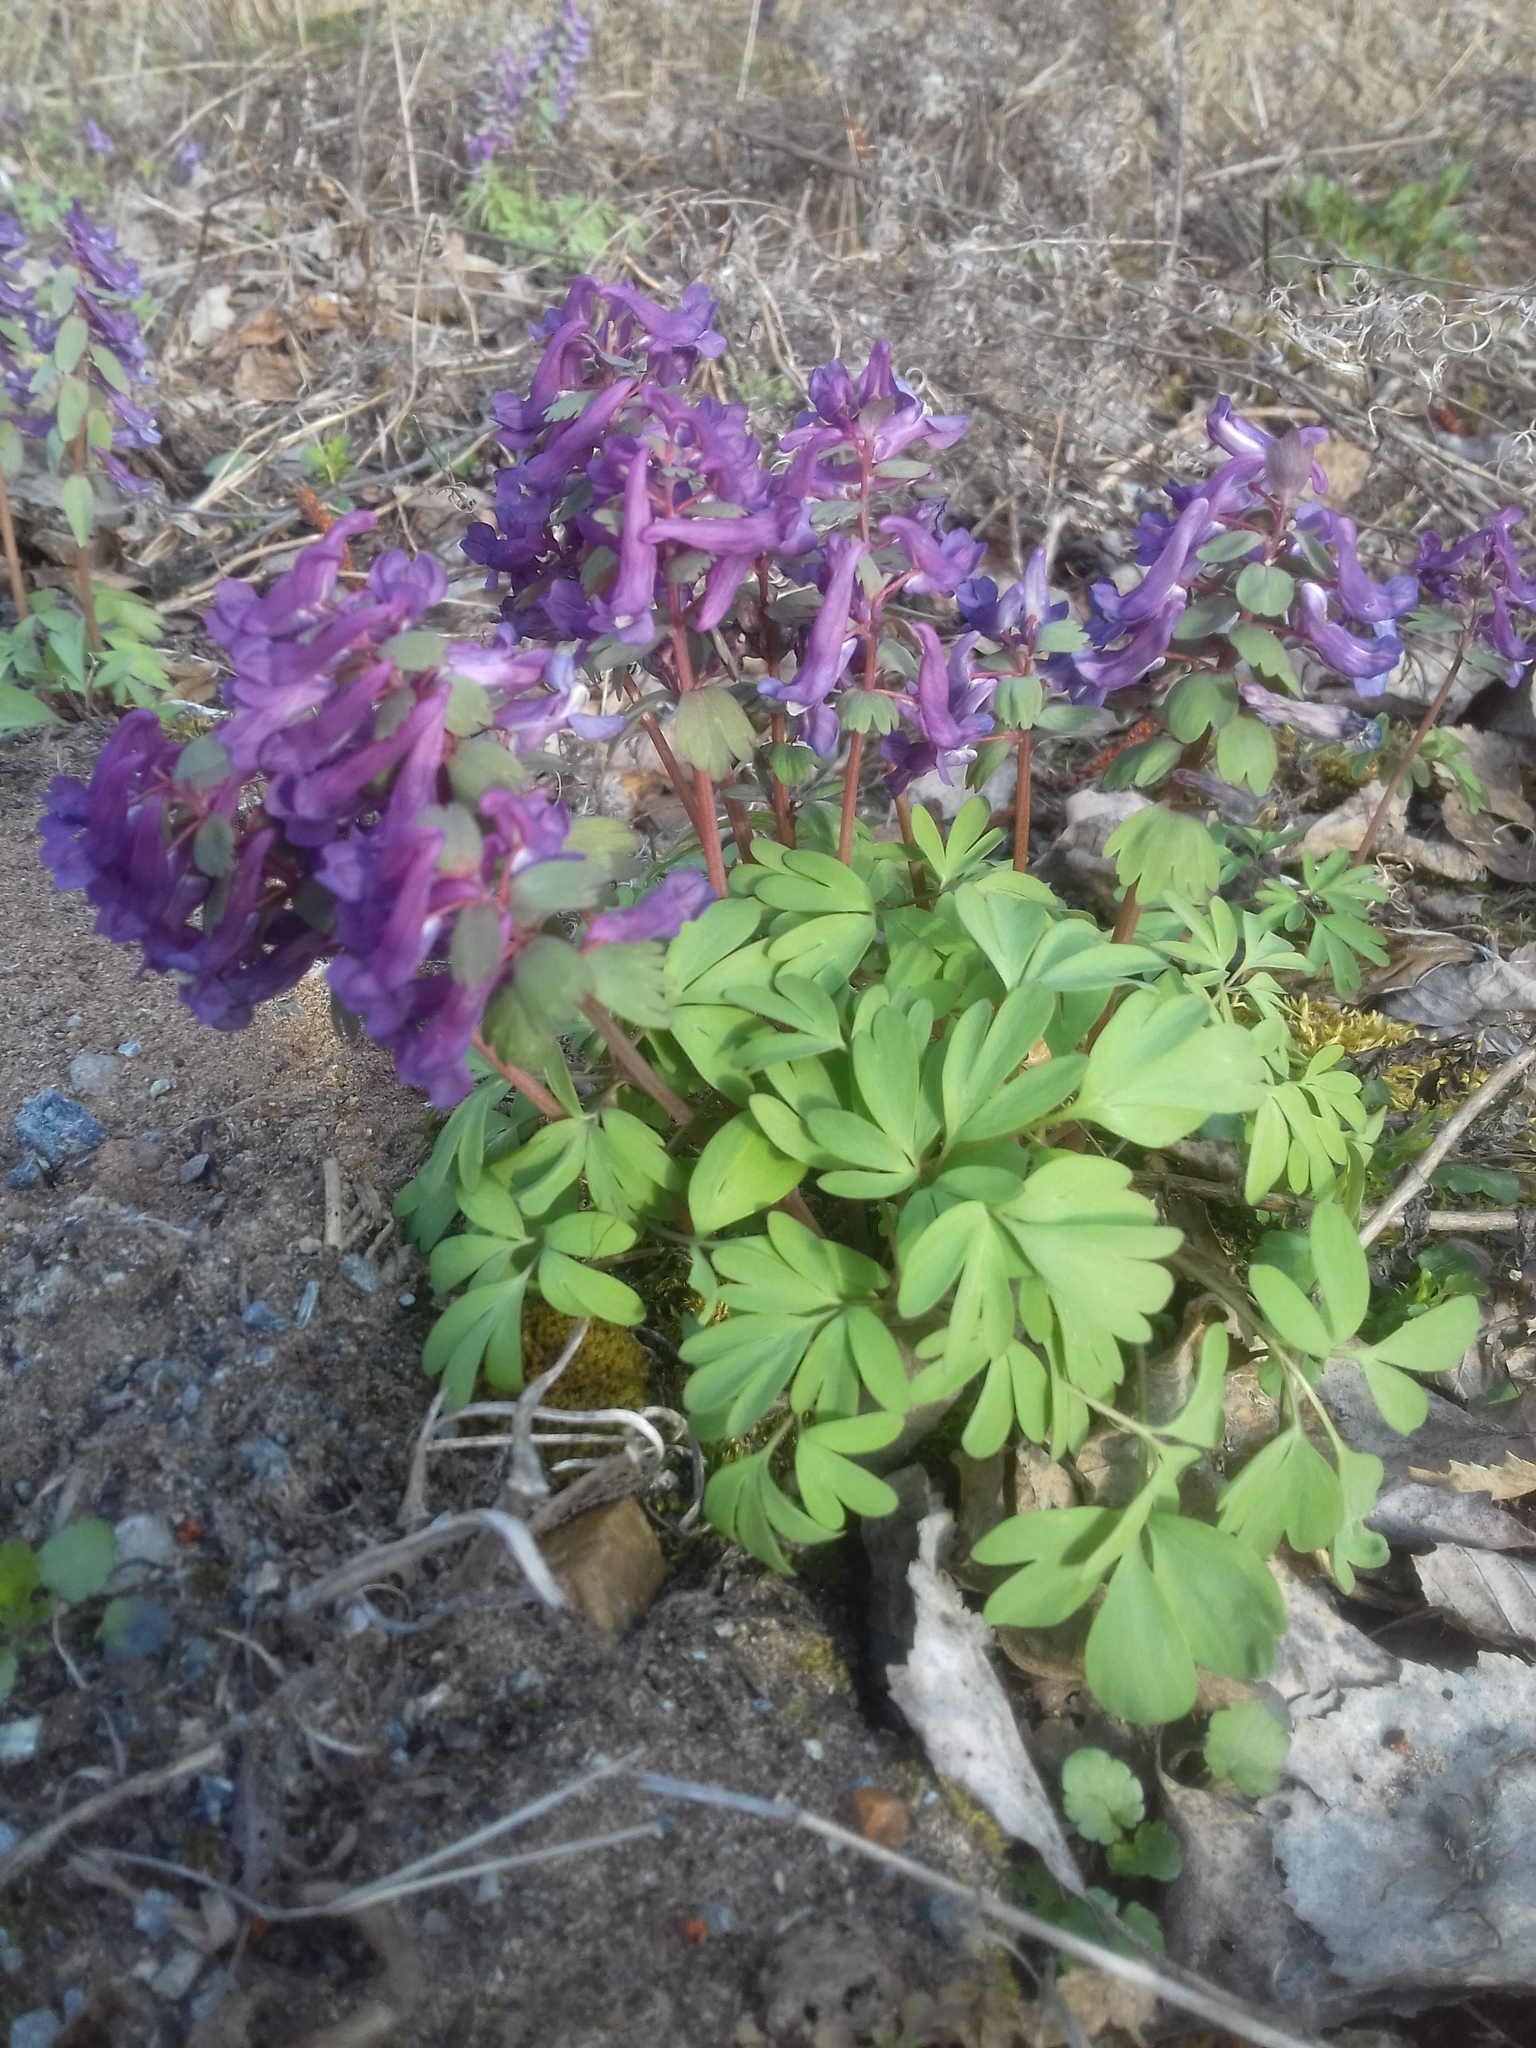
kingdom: Plantae
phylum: Tracheophyta
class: Magnoliopsida
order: Ranunculales
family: Papaveraceae
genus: Corydalis
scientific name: Corydalis solida
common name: Bird-in-a-bush
